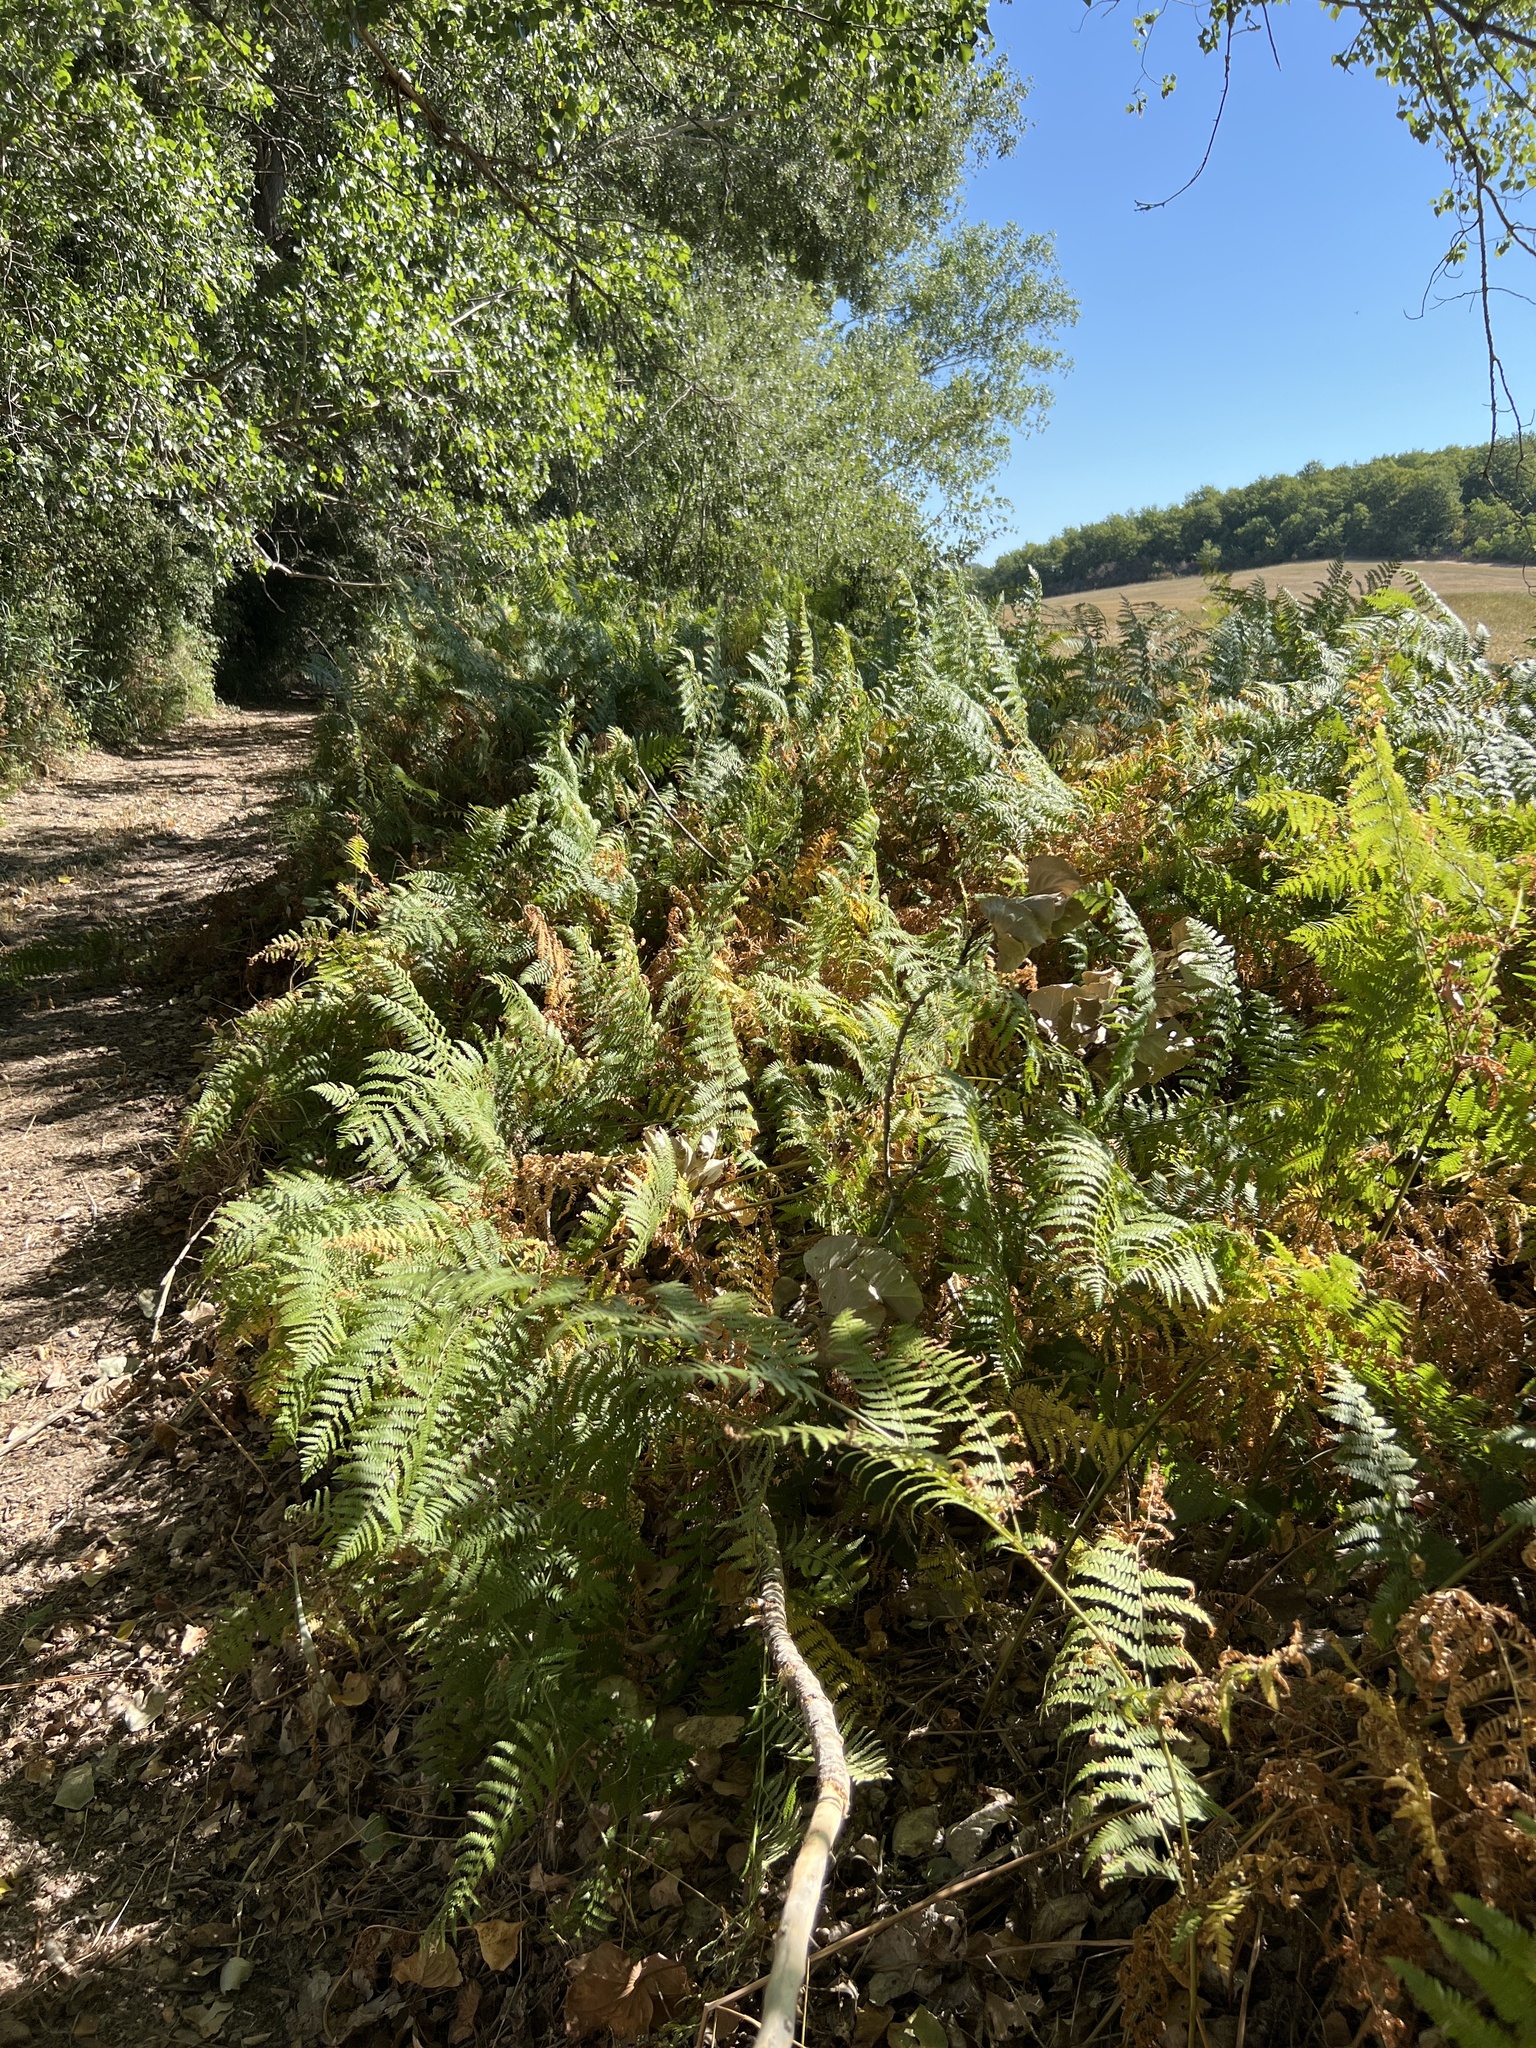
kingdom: Plantae
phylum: Tracheophyta
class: Polypodiopsida
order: Polypodiales
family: Dennstaedtiaceae
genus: Pteridium
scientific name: Pteridium aquilinum
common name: Bracken
